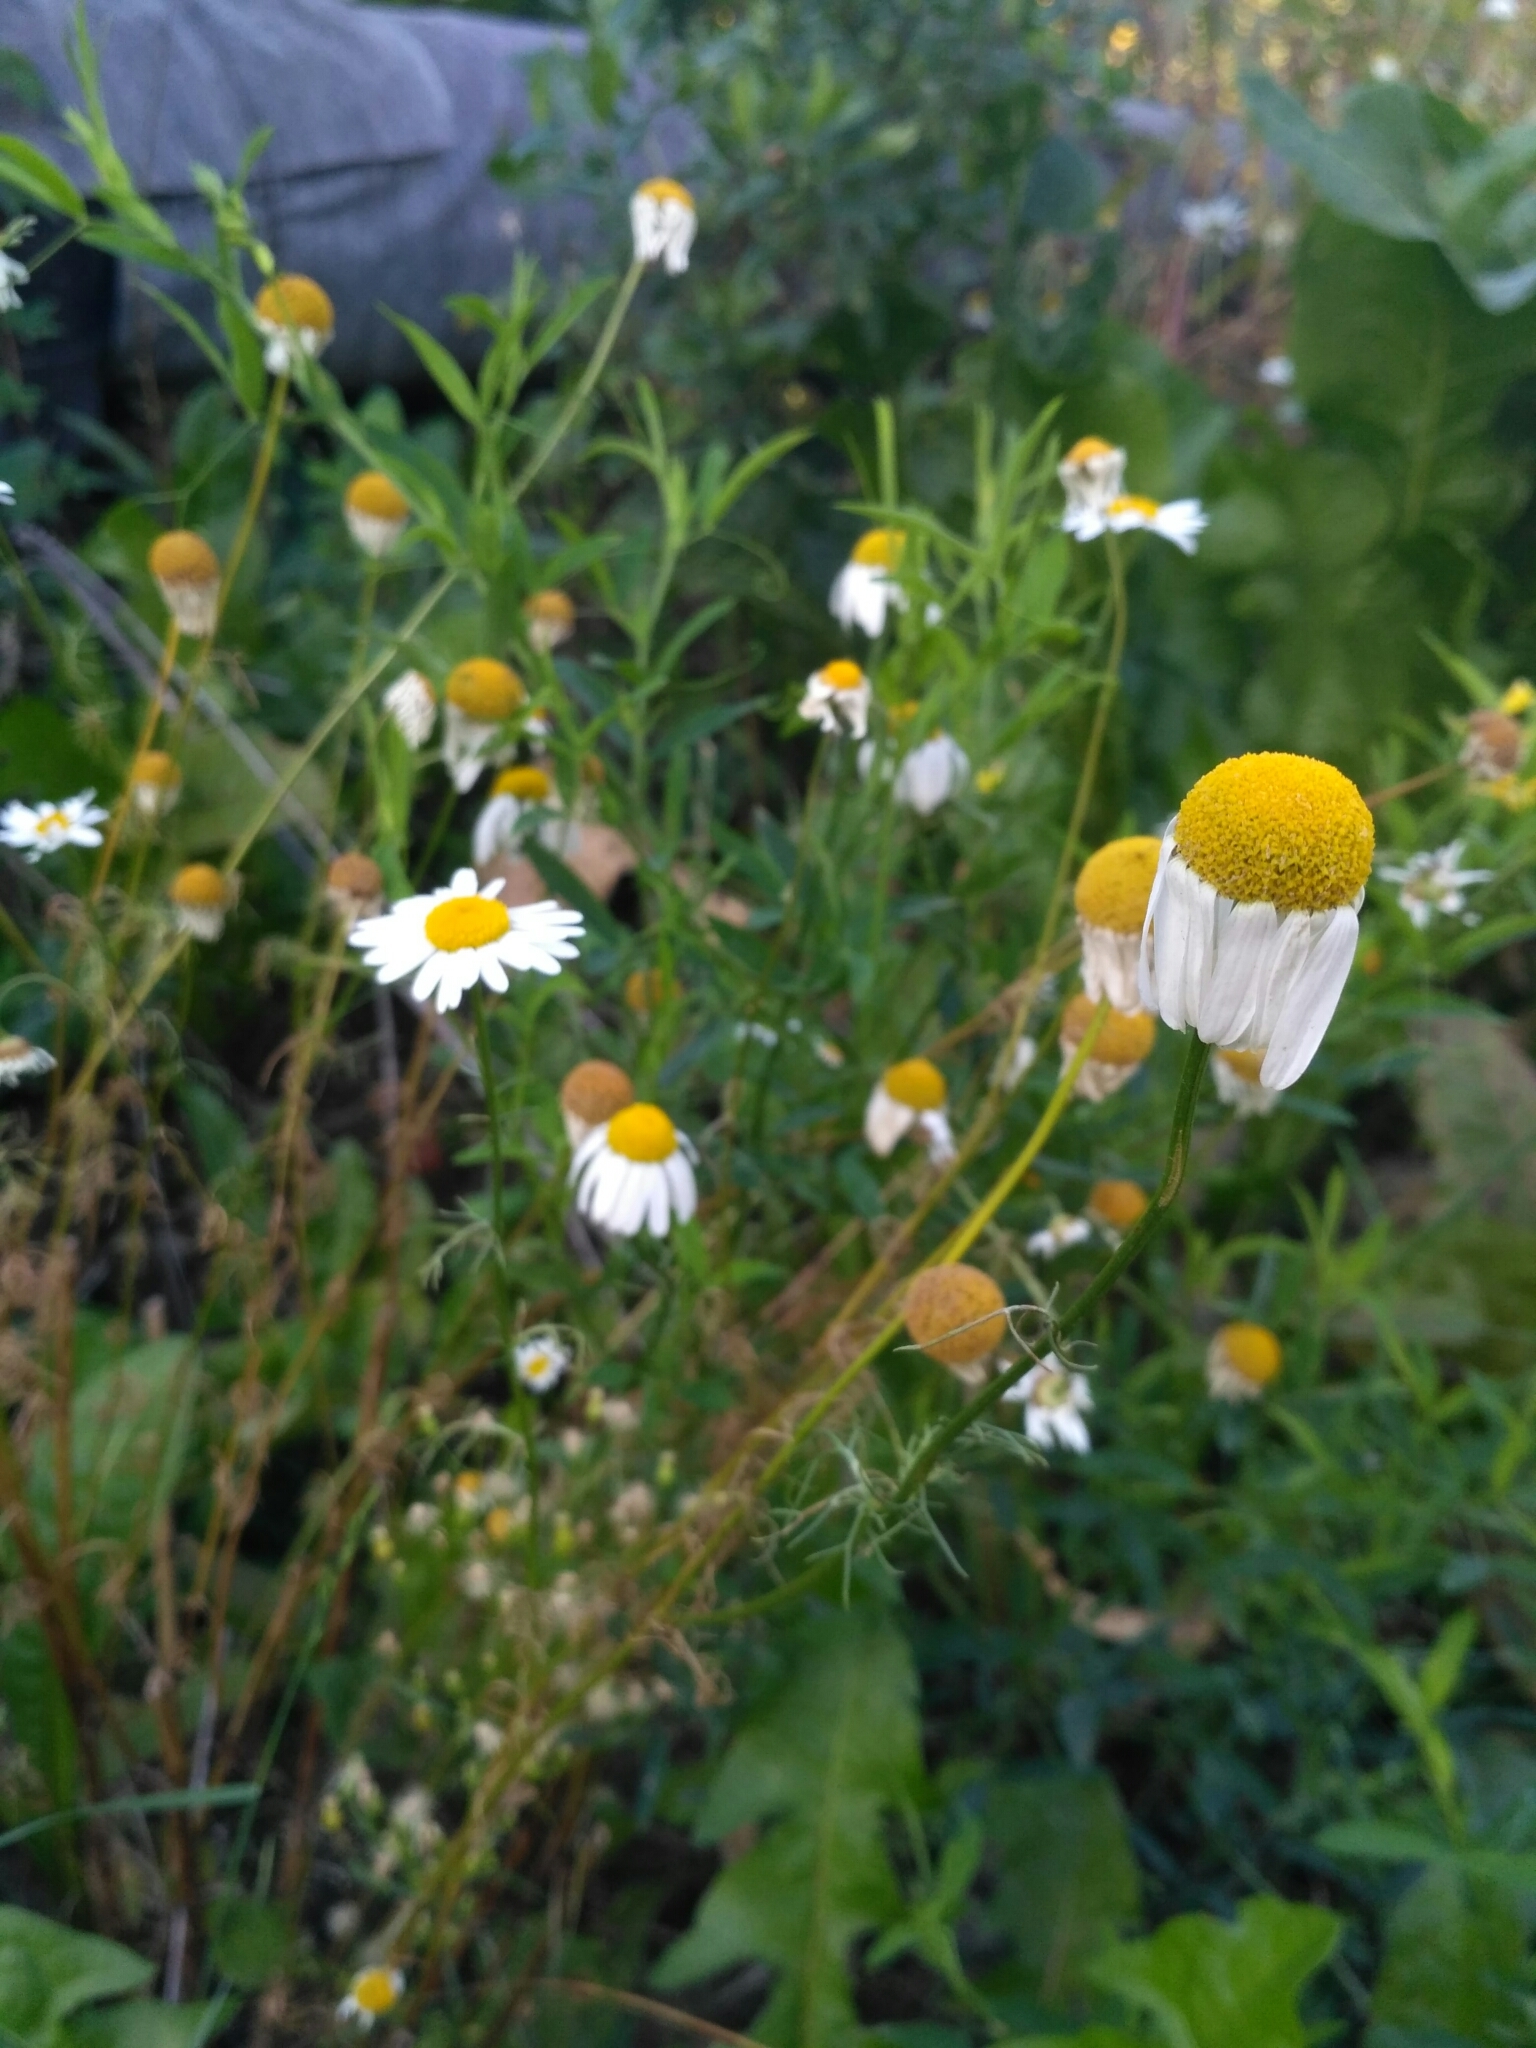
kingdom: Plantae
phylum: Tracheophyta
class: Magnoliopsida
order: Asterales
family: Asteraceae
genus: Tripleurospermum
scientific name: Tripleurospermum inodorum
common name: Scentless mayweed
